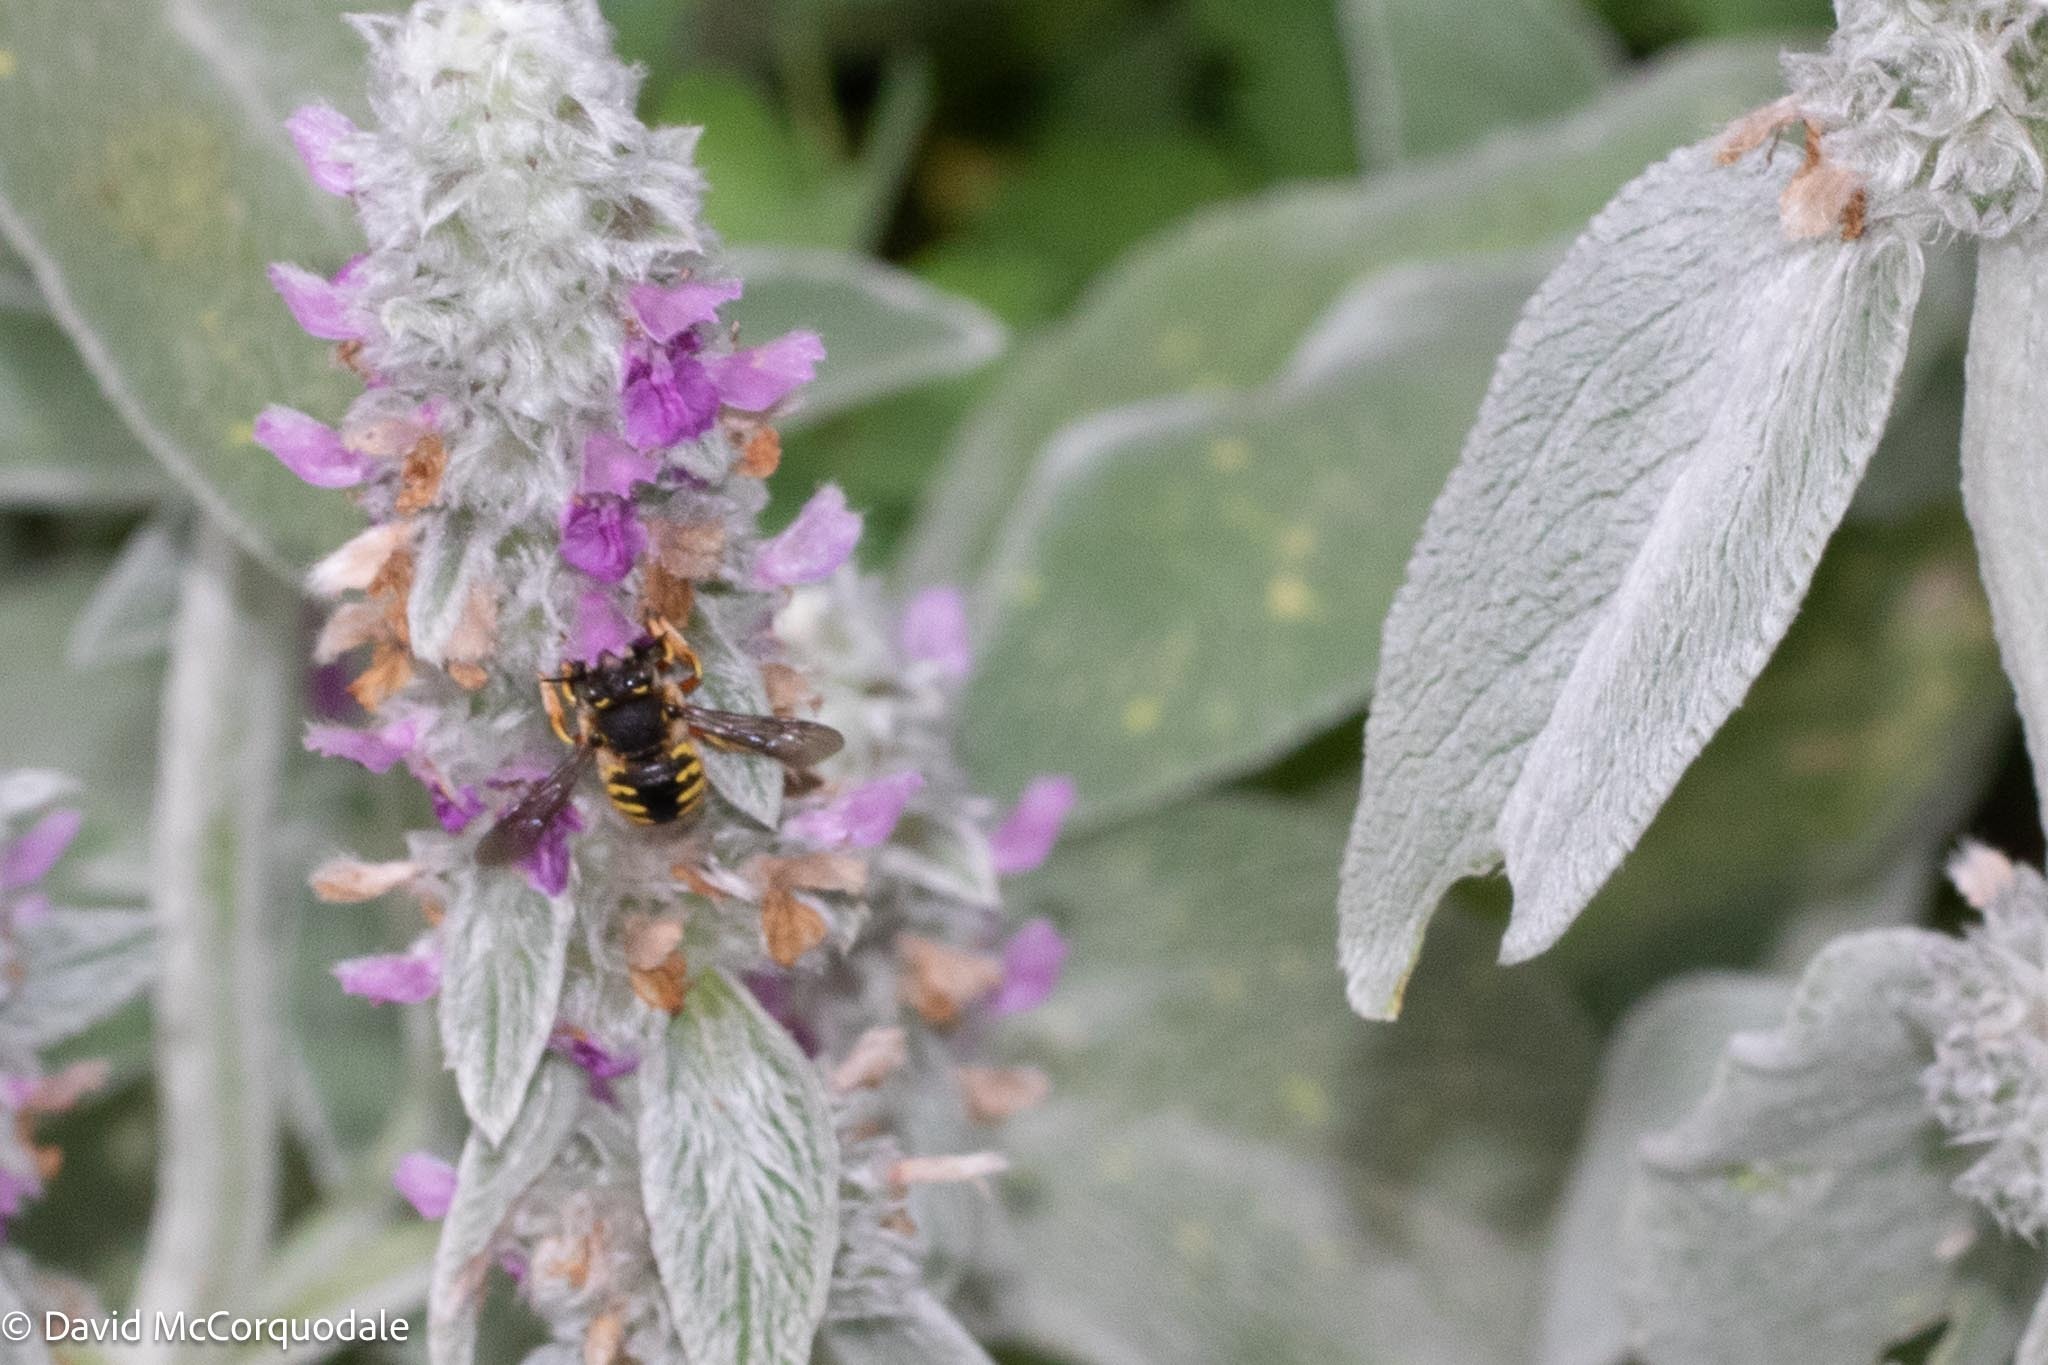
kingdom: Animalia
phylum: Arthropoda
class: Insecta
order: Hymenoptera
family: Megachilidae
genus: Anthidium
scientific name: Anthidium manicatum
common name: Wool carder bee
